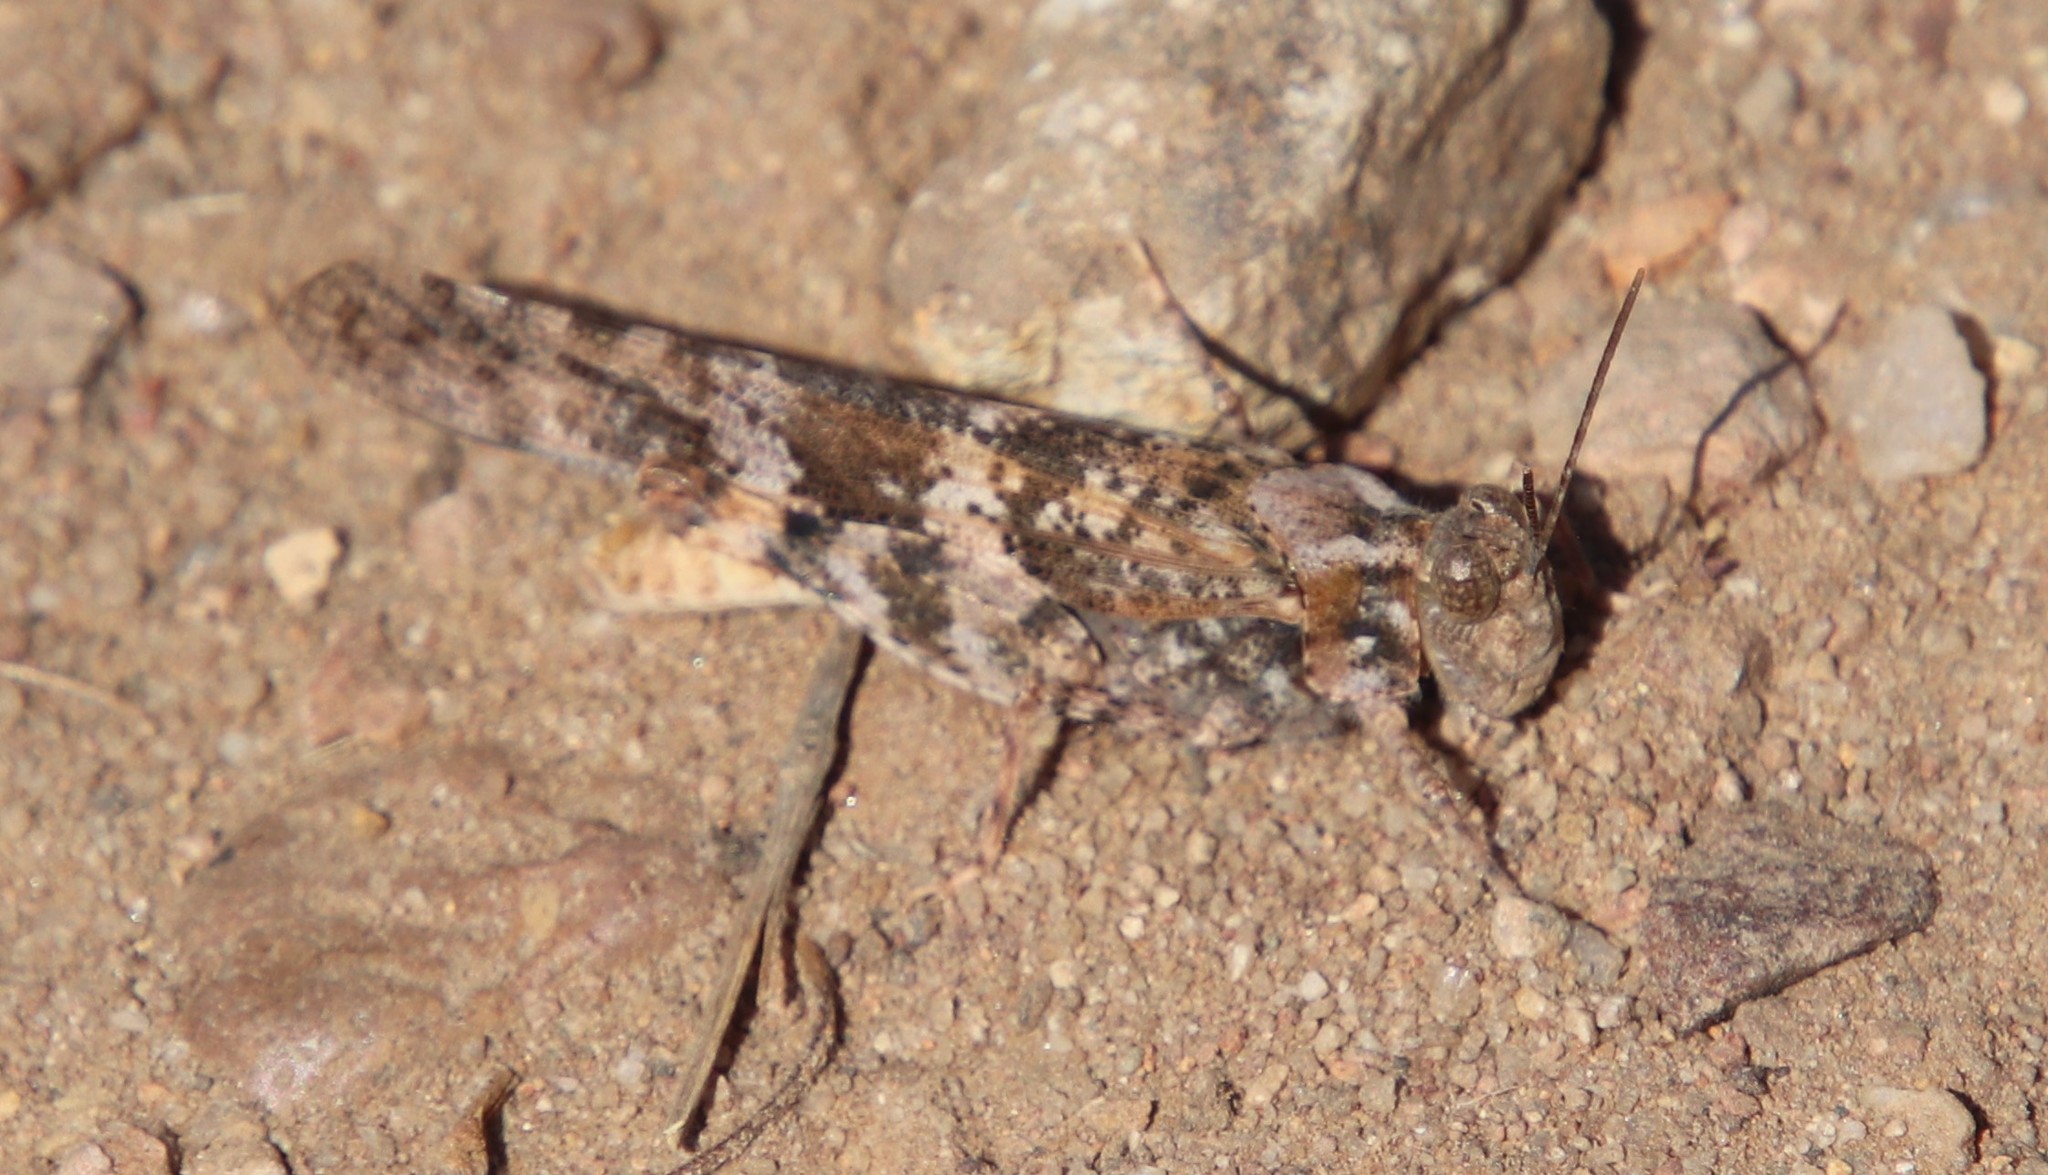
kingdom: Animalia
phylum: Arthropoda
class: Insecta
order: Orthoptera
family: Acrididae
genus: Trimerotropis
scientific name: Trimerotropis pallidipennis
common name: Pallid-winged grasshopper
